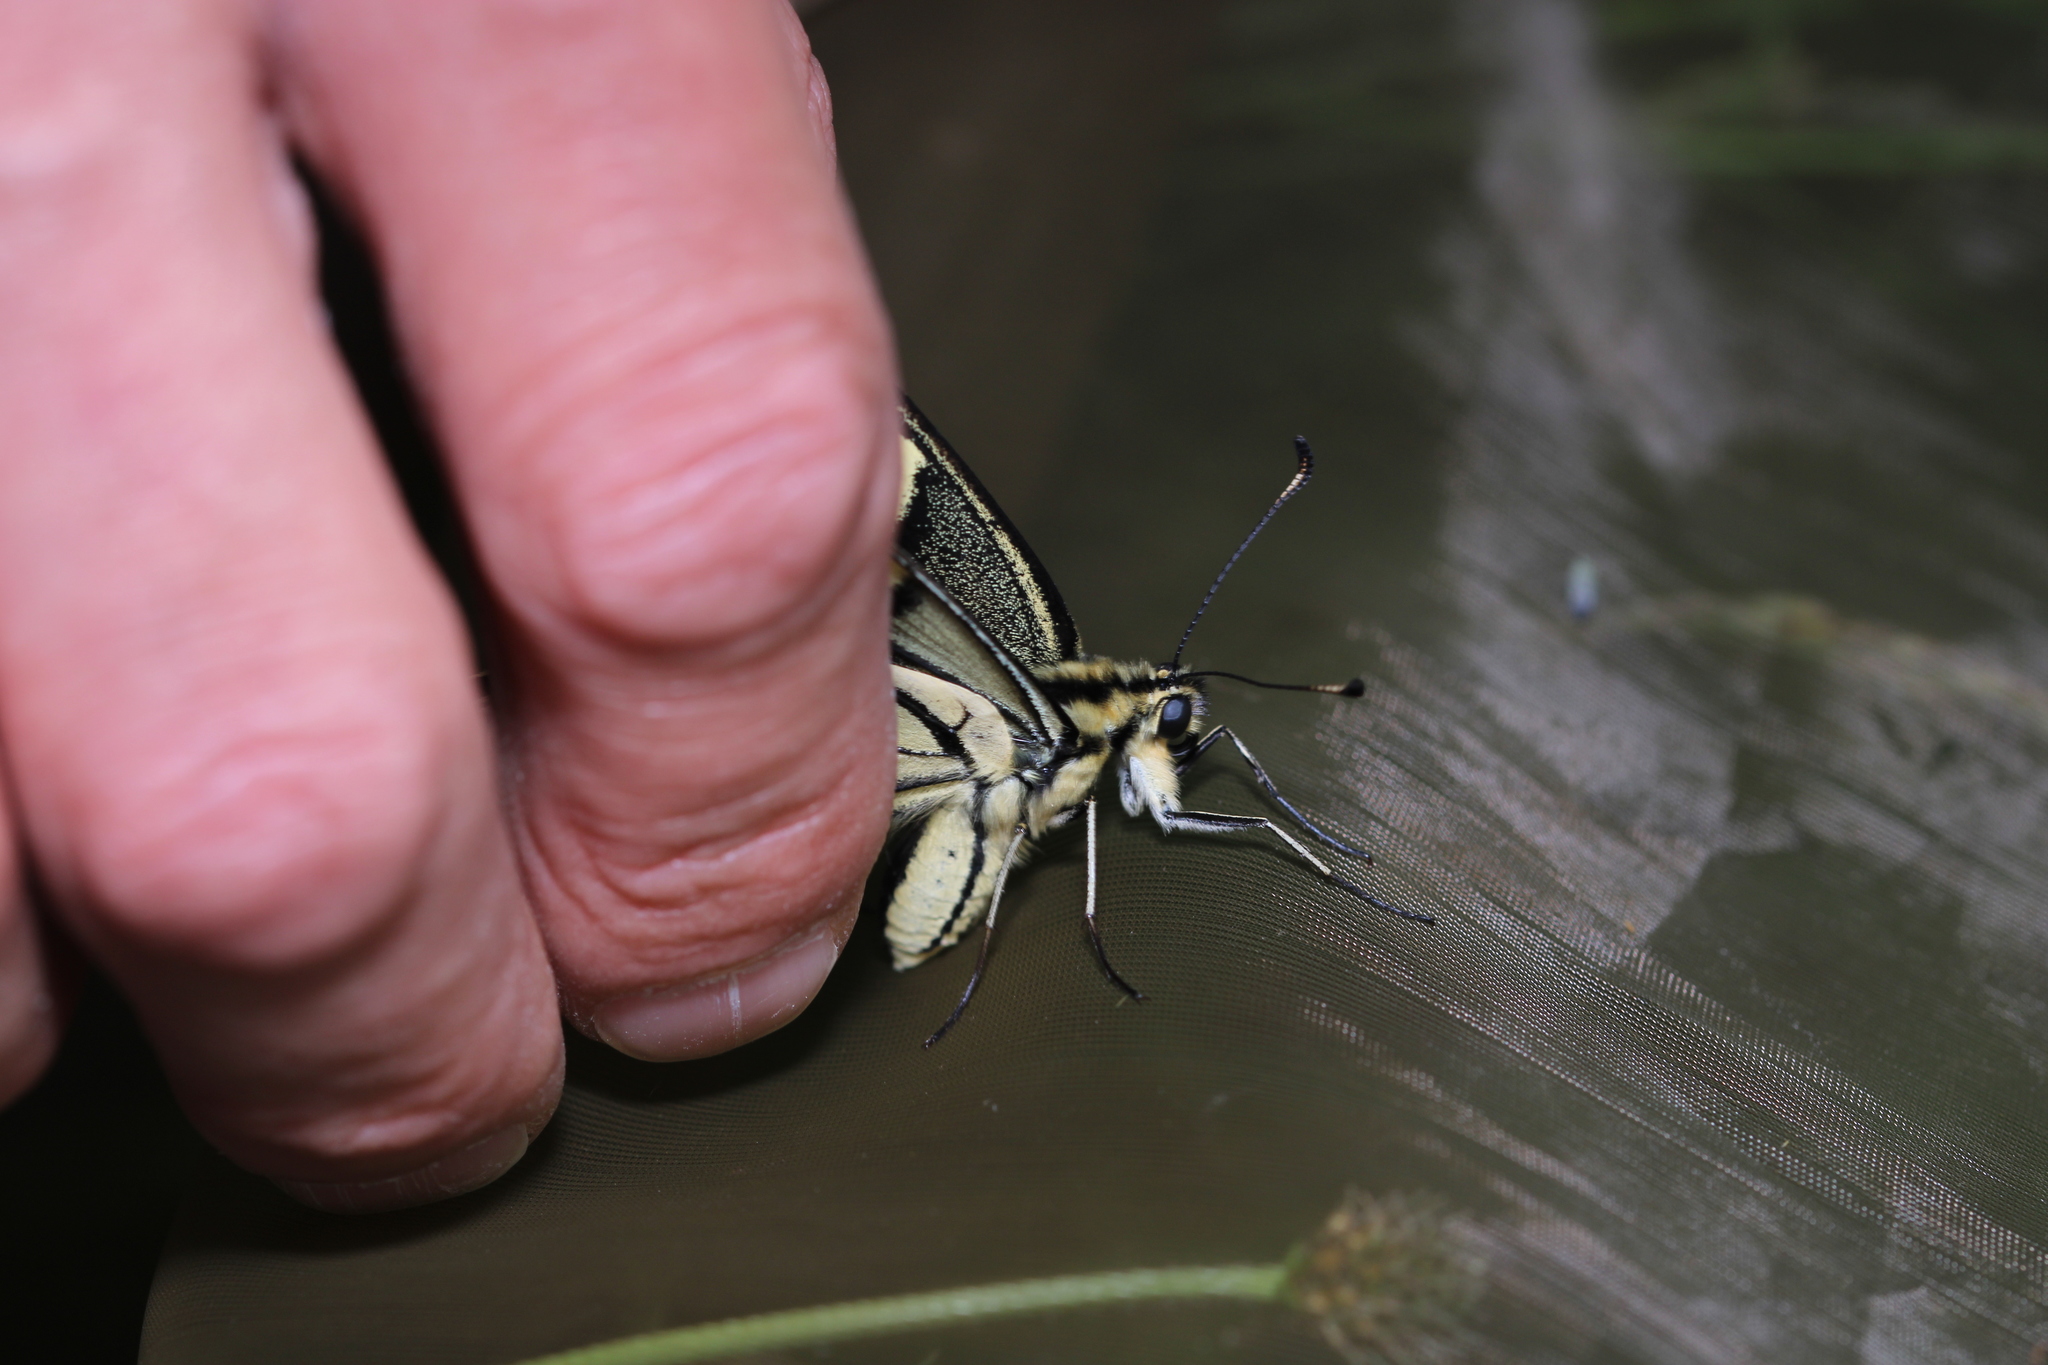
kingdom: Animalia
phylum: Arthropoda
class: Insecta
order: Lepidoptera
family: Papilionidae
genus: Papilio
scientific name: Papilio machaon
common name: Swallowtail
